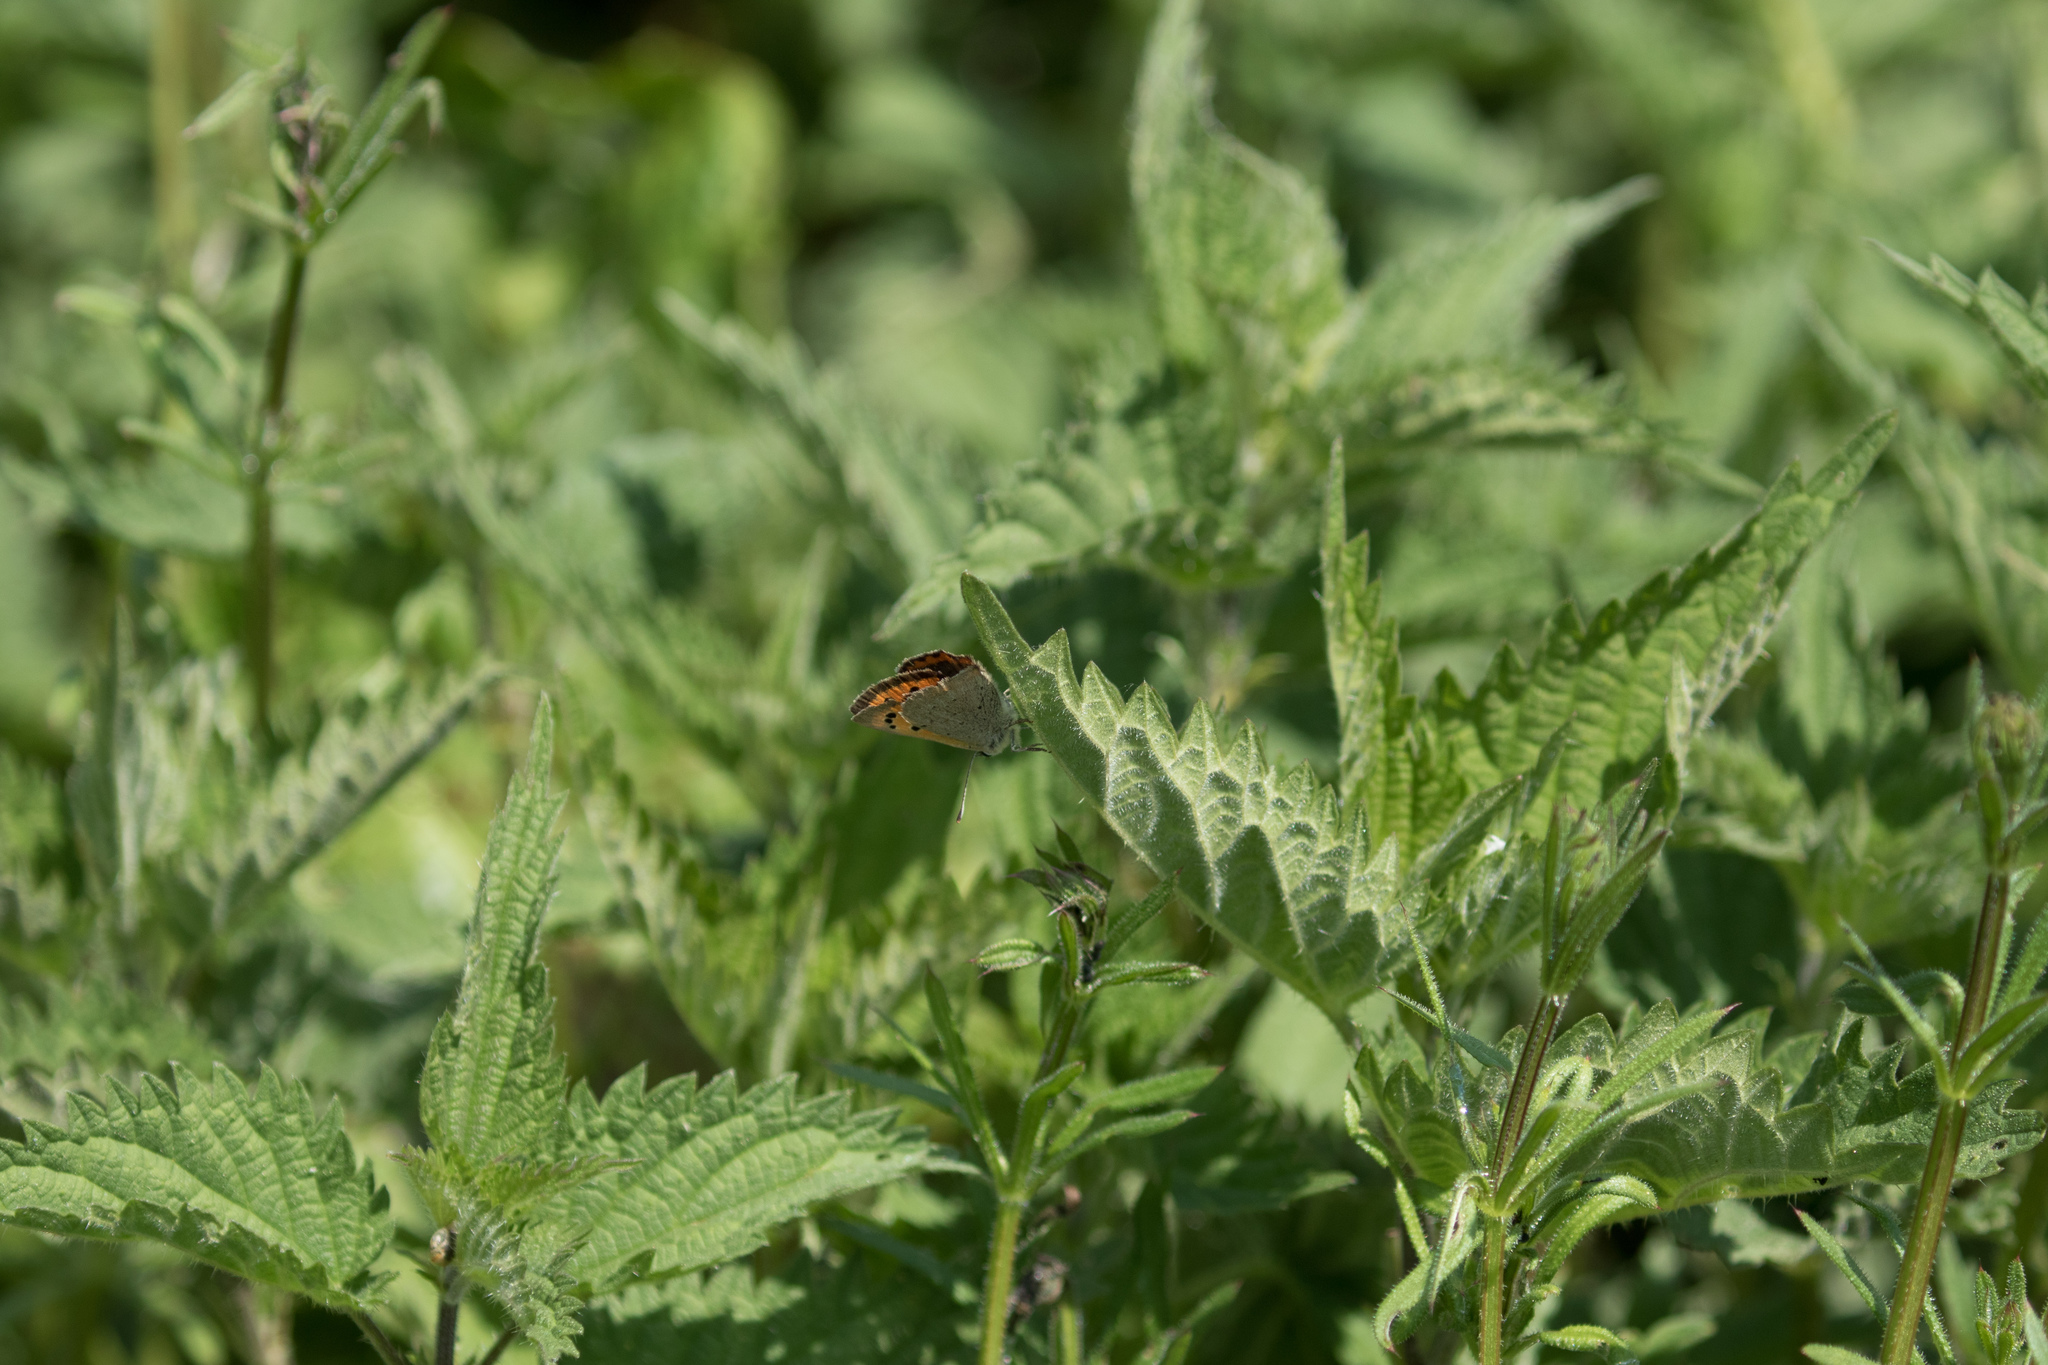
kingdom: Animalia
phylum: Arthropoda
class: Insecta
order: Lepidoptera
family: Lycaenidae
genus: Lycaena
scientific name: Lycaena phlaeas
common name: Small copper
